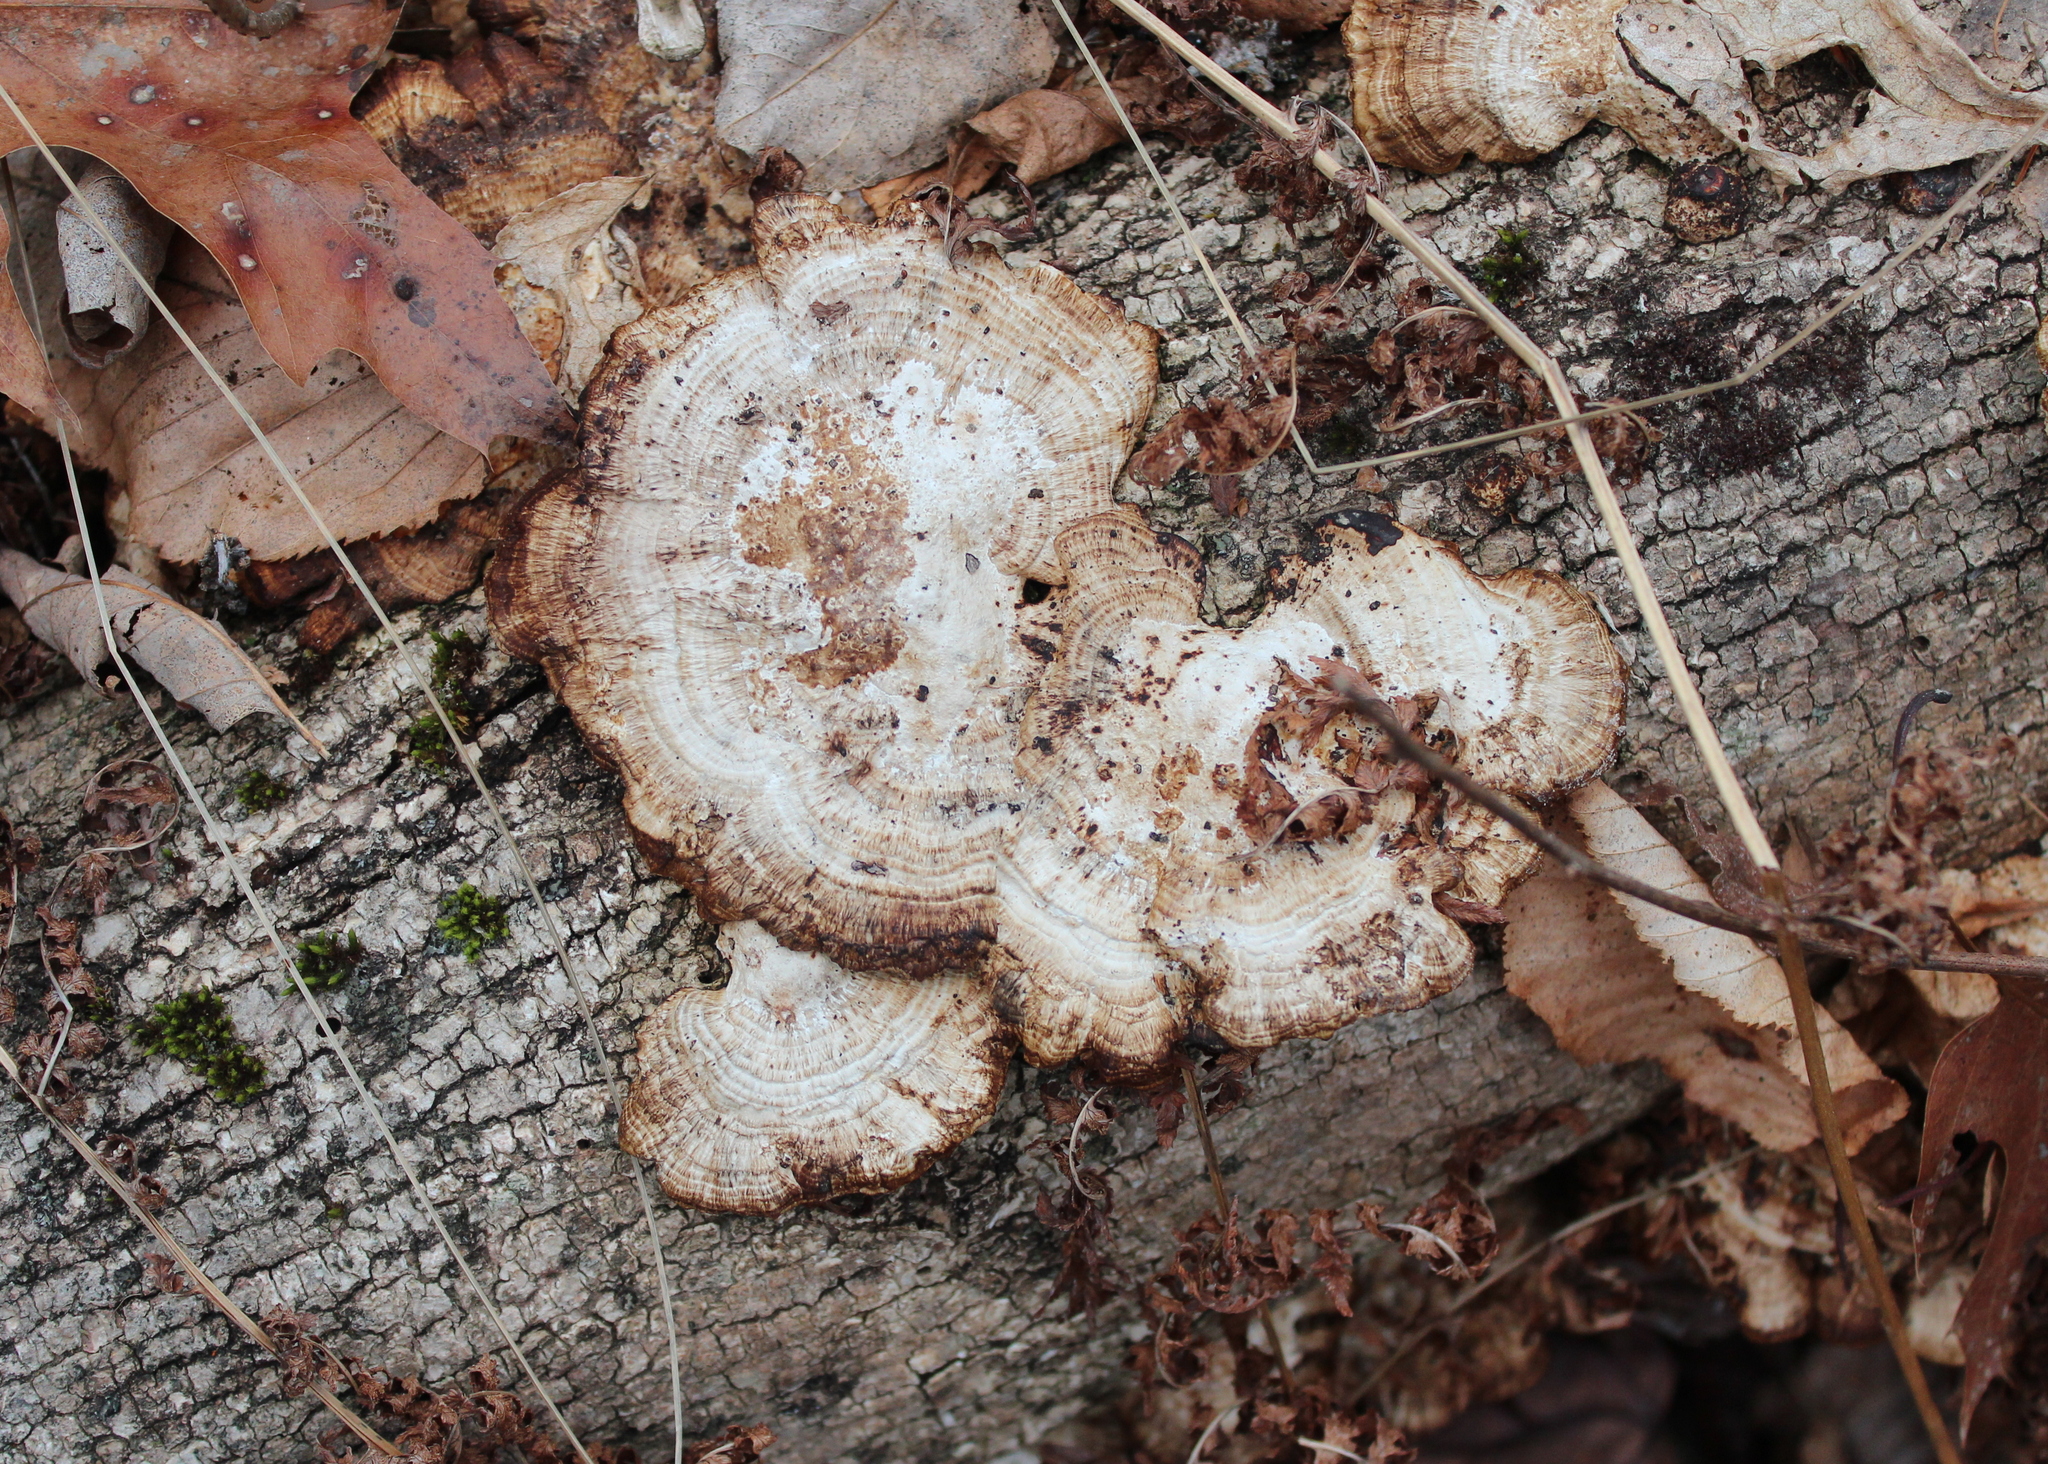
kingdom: Fungi
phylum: Basidiomycota
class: Agaricomycetes
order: Polyporales
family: Polyporaceae
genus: Daedaleopsis
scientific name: Daedaleopsis confragosa
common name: Blushing bracket
